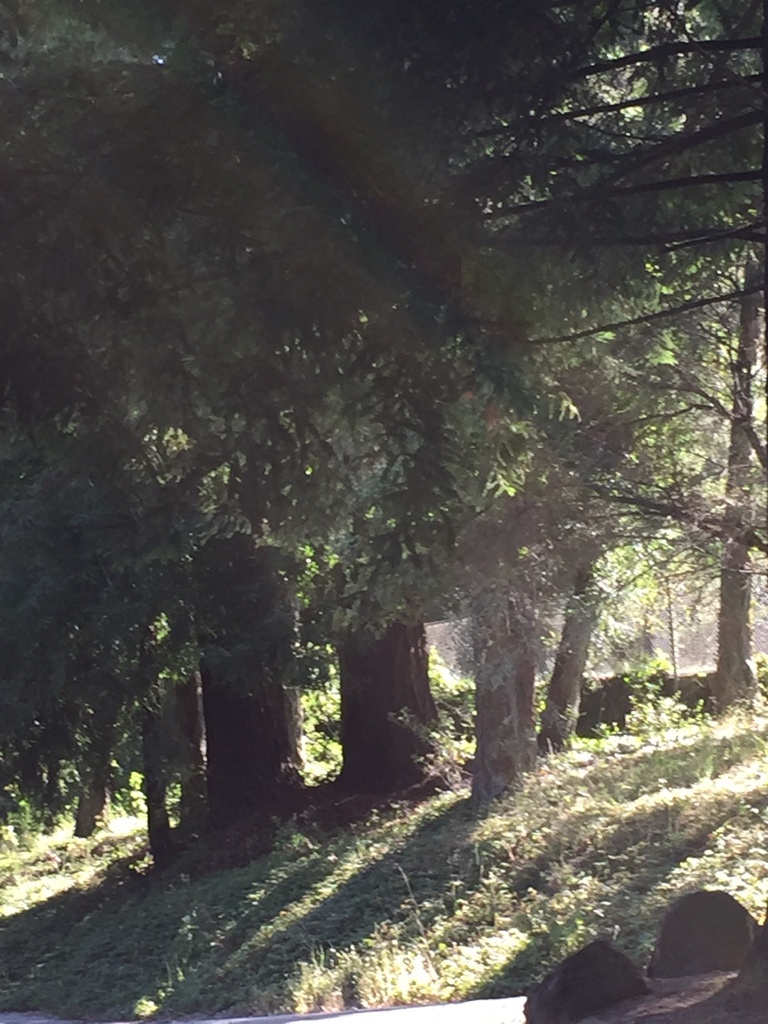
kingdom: Plantae
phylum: Tracheophyta
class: Pinopsida
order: Pinales
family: Cupressaceae
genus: Sequoia
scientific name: Sequoia sempervirens
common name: Coast redwood
